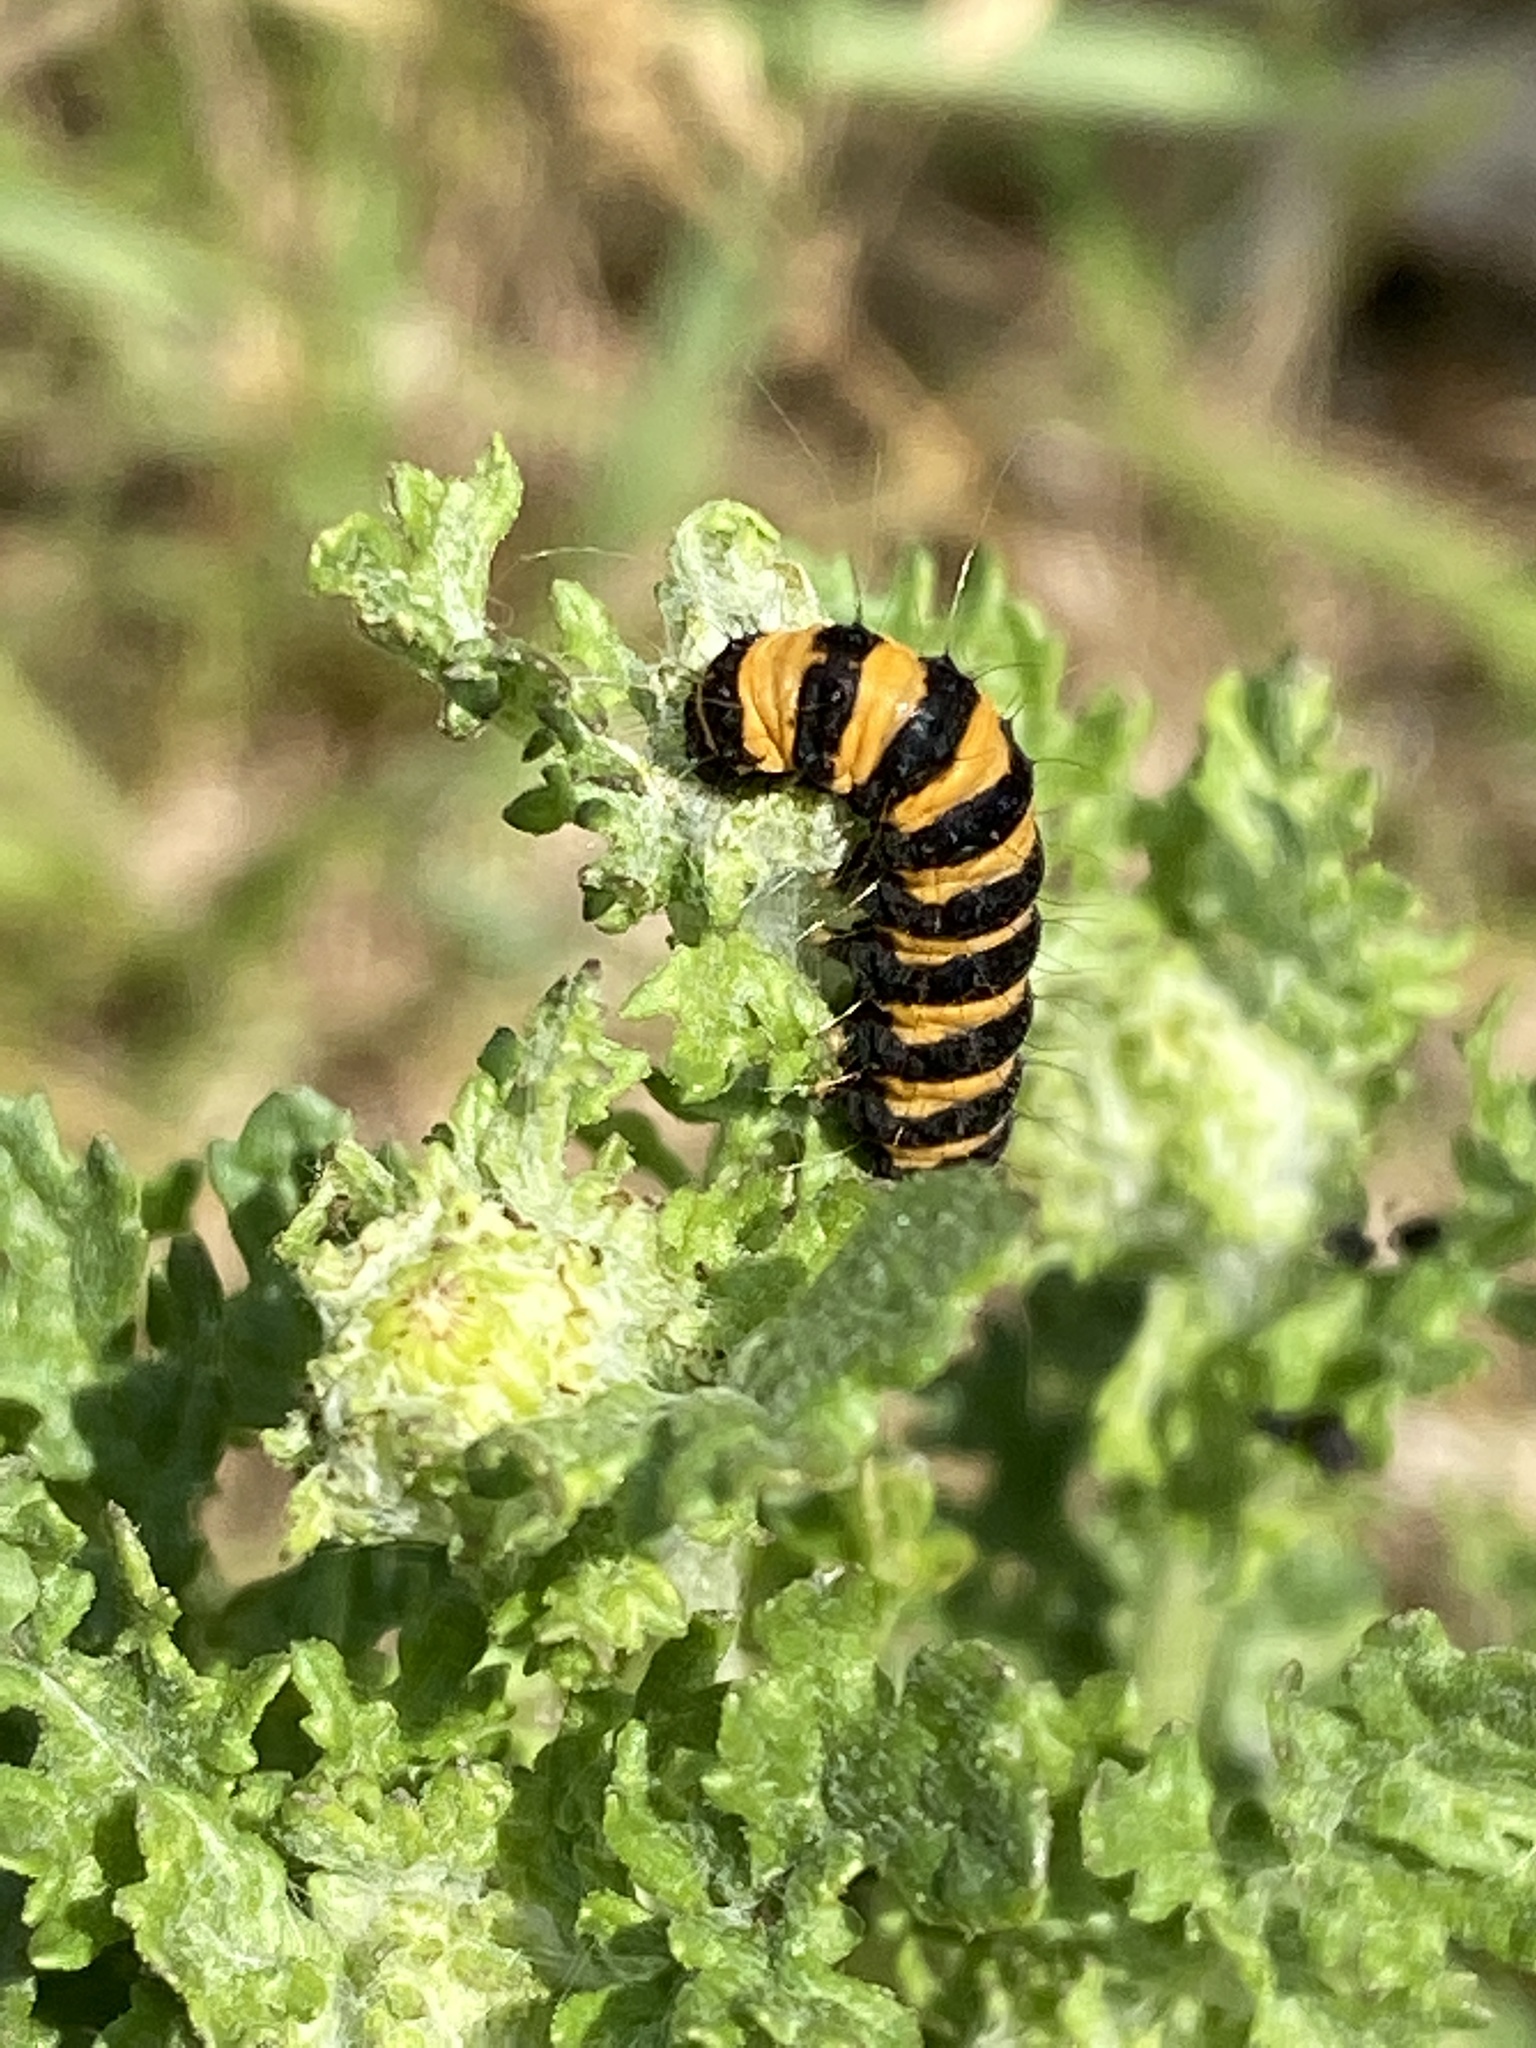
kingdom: Animalia
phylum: Arthropoda
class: Insecta
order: Lepidoptera
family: Erebidae
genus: Tyria
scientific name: Tyria jacobaeae
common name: Cinnabar
